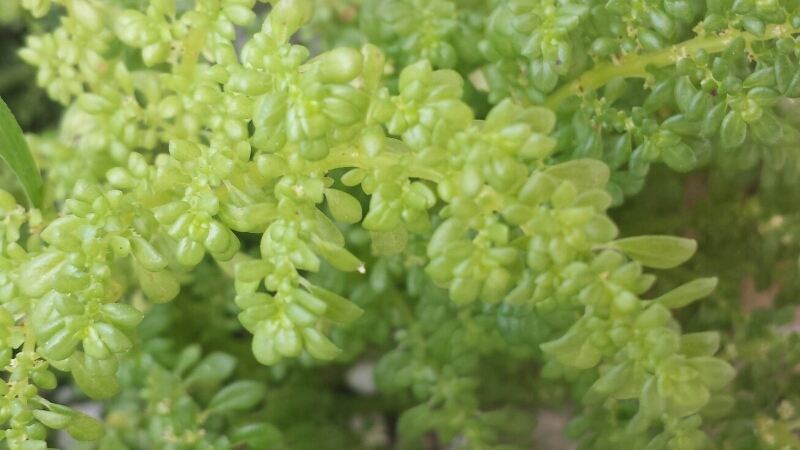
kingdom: Plantae
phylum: Tracheophyta
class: Magnoliopsida
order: Rosales
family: Urticaceae
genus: Pilea
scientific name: Pilea microphylla
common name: Artillery-plant
